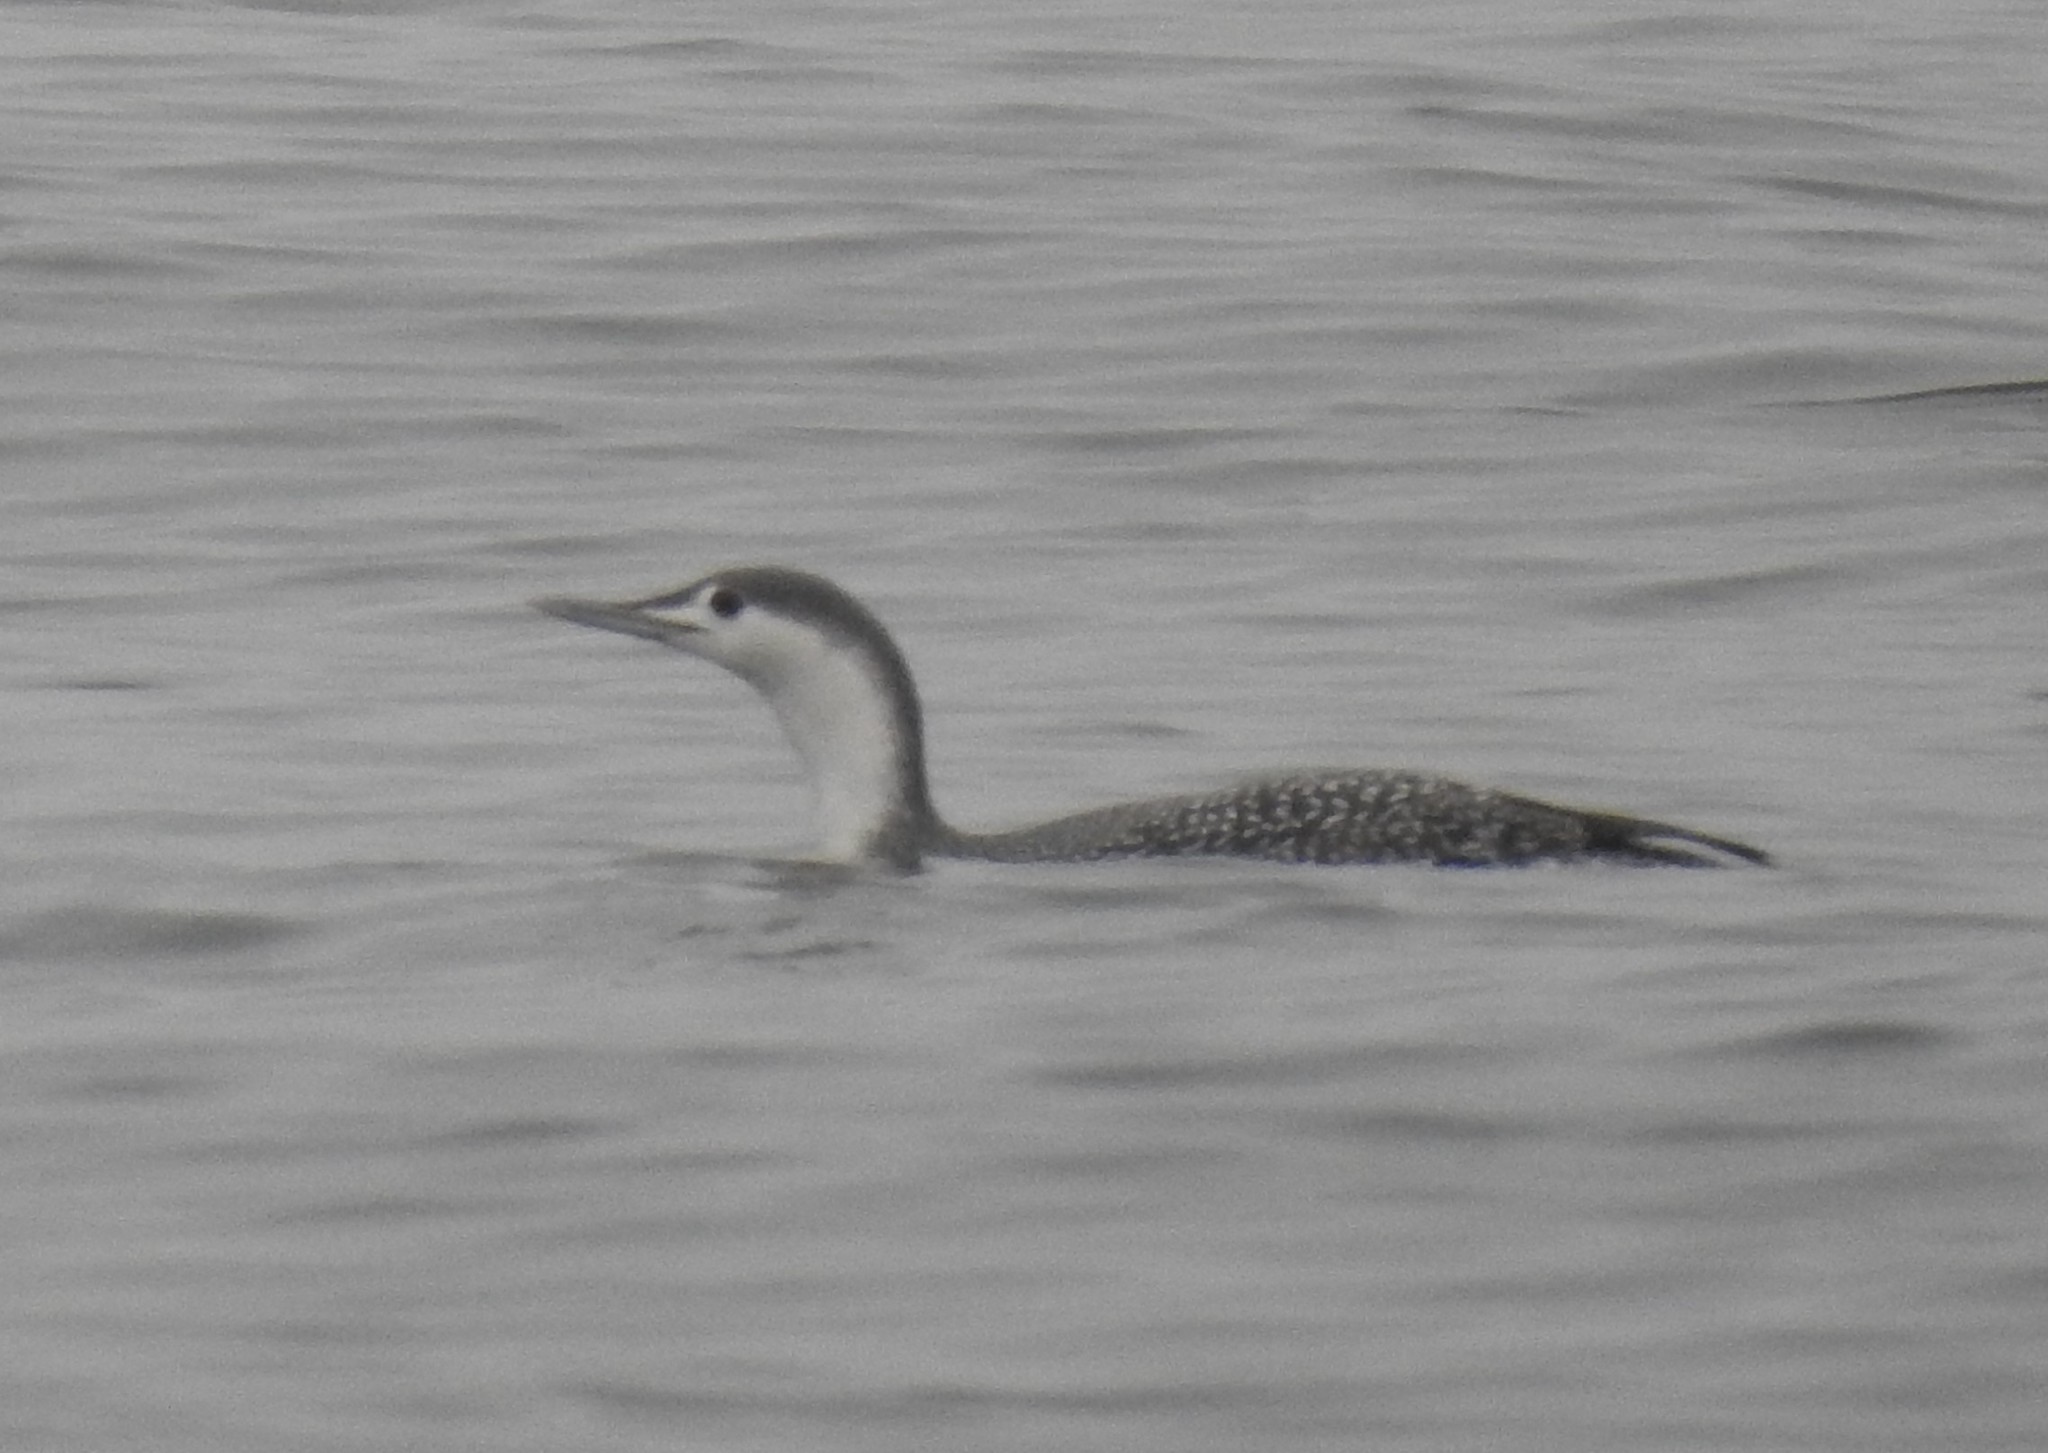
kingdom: Animalia
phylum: Chordata
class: Aves
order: Gaviiformes
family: Gaviidae
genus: Gavia
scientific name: Gavia stellata
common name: Red-throated loon
